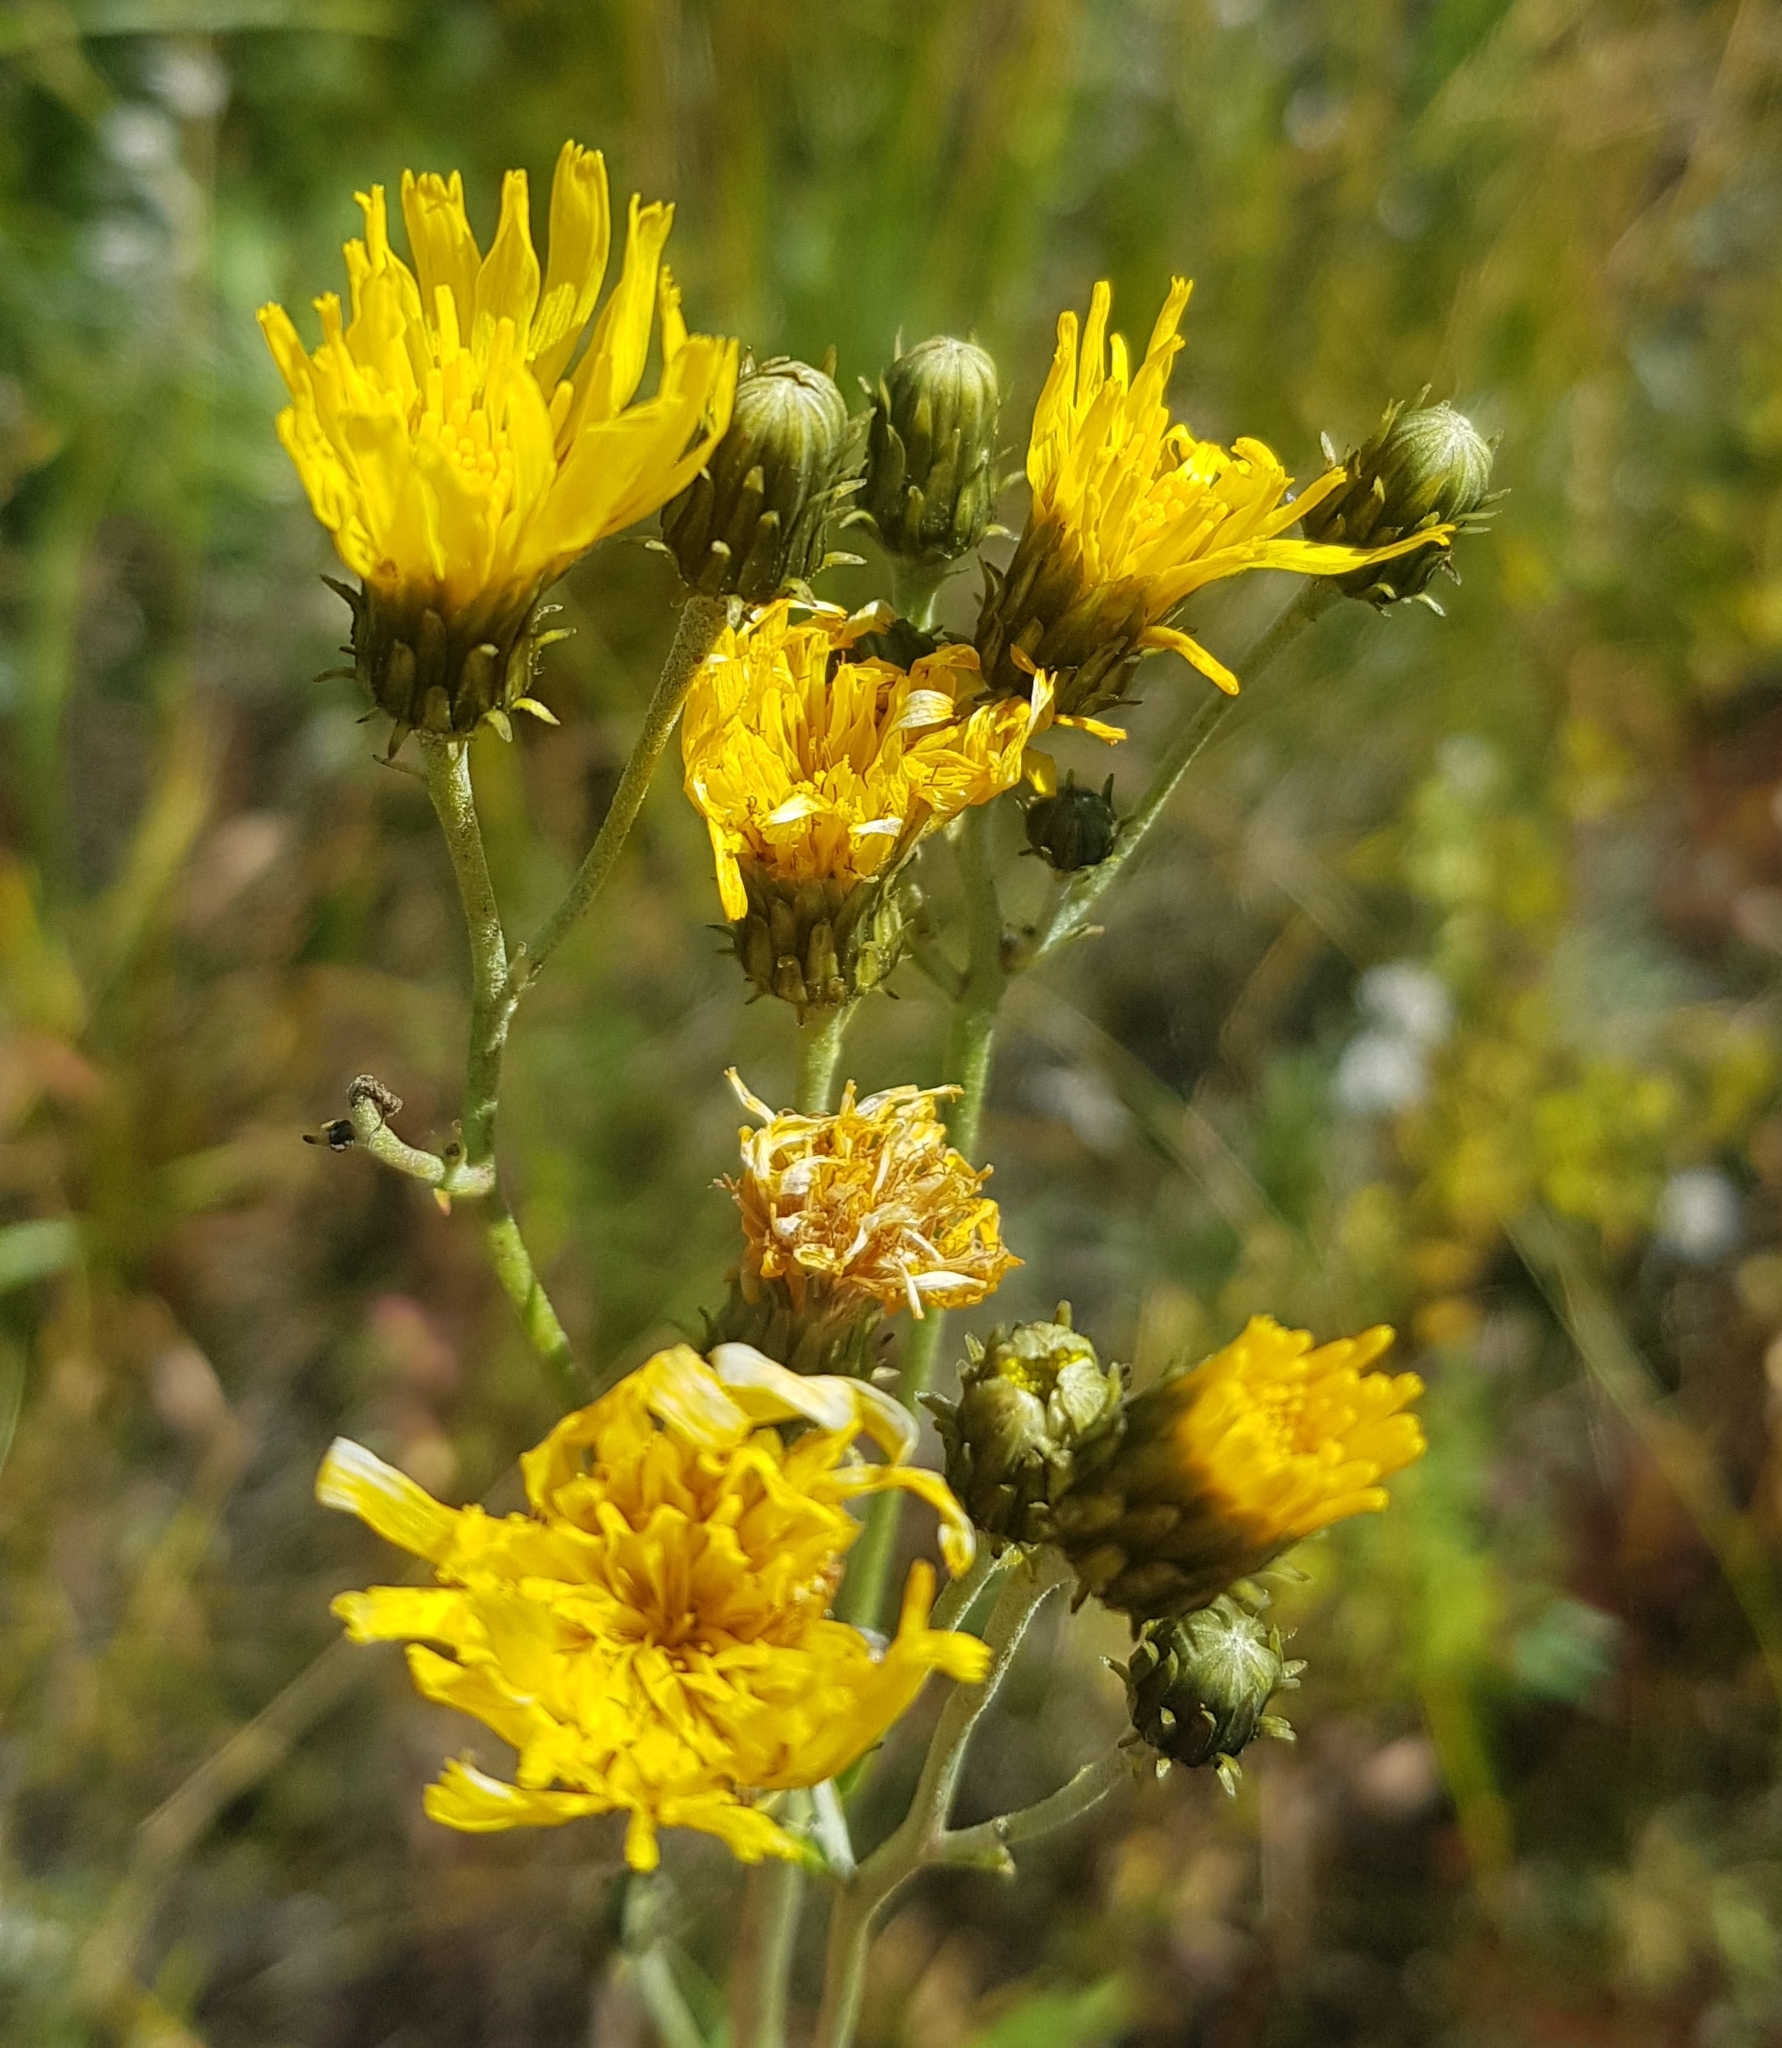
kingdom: Plantae
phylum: Tracheophyta
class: Magnoliopsida
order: Asterales
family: Asteraceae
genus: Hieracium
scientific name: Hieracium umbellatum
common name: Northern hawkweed
